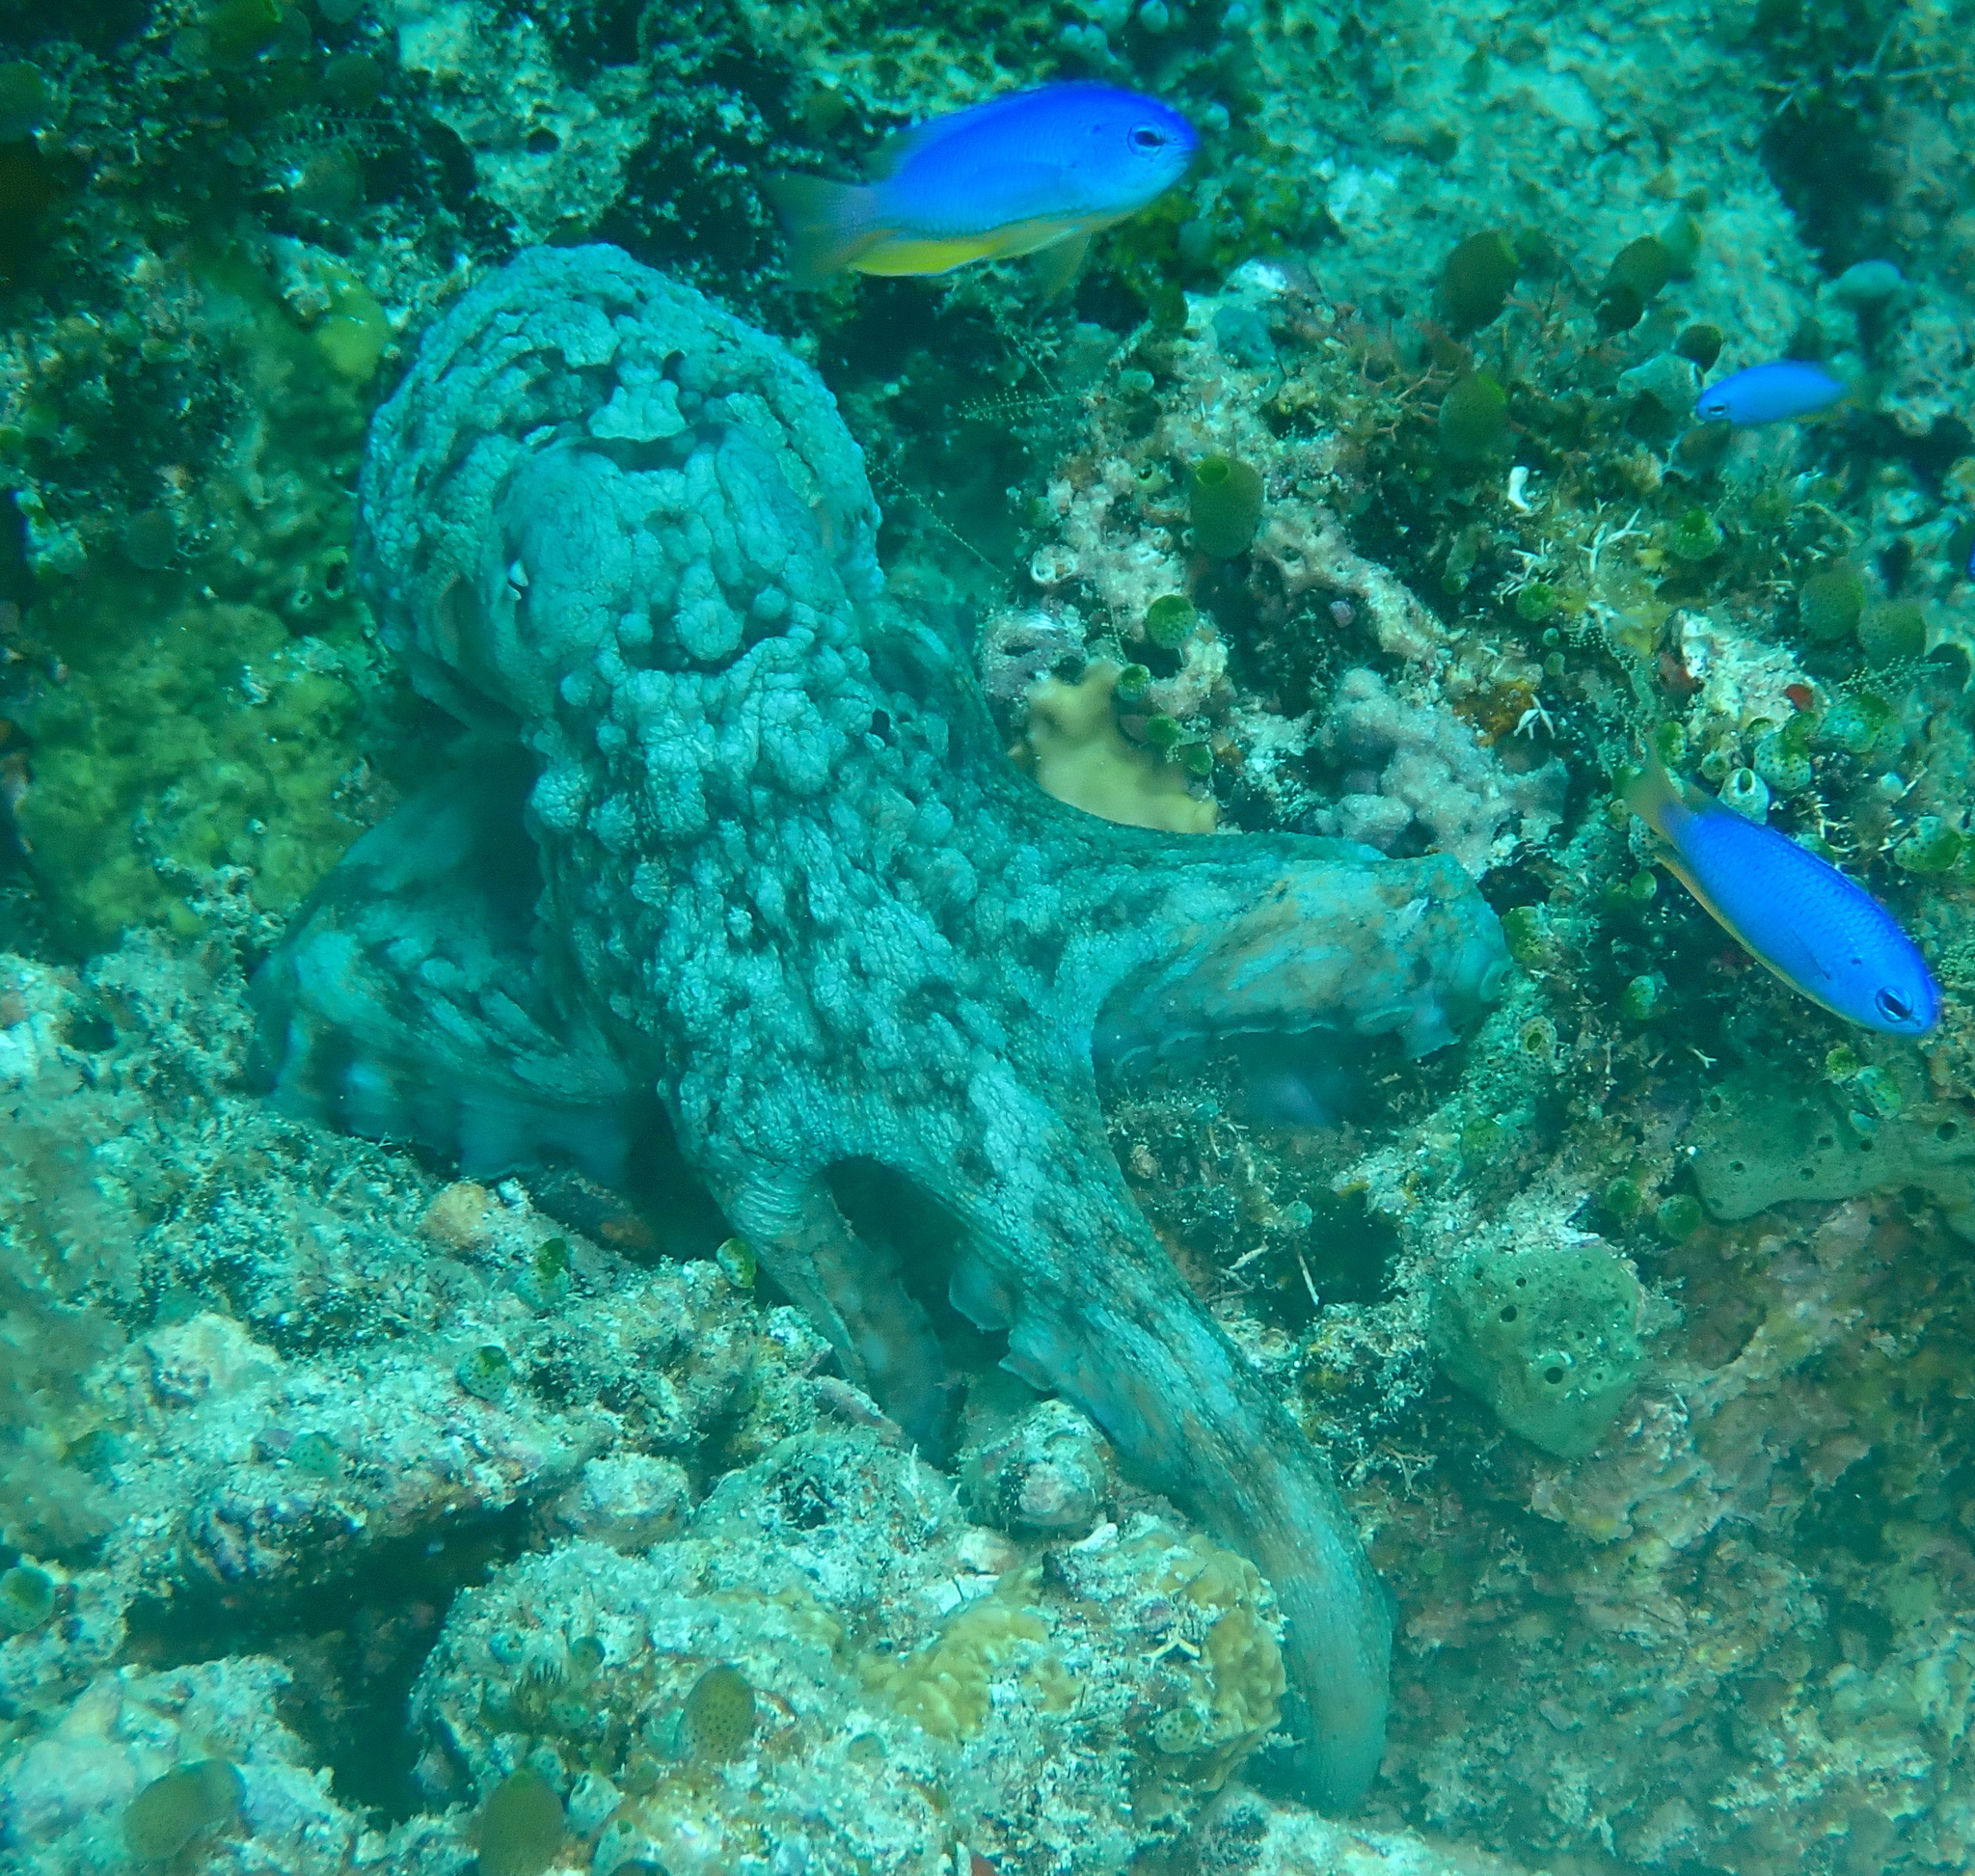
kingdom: Animalia
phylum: Mollusca
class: Cephalopoda
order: Octopoda
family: Octopodidae
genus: Octopus
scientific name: Octopus cyanea
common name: Cyane's octopus
